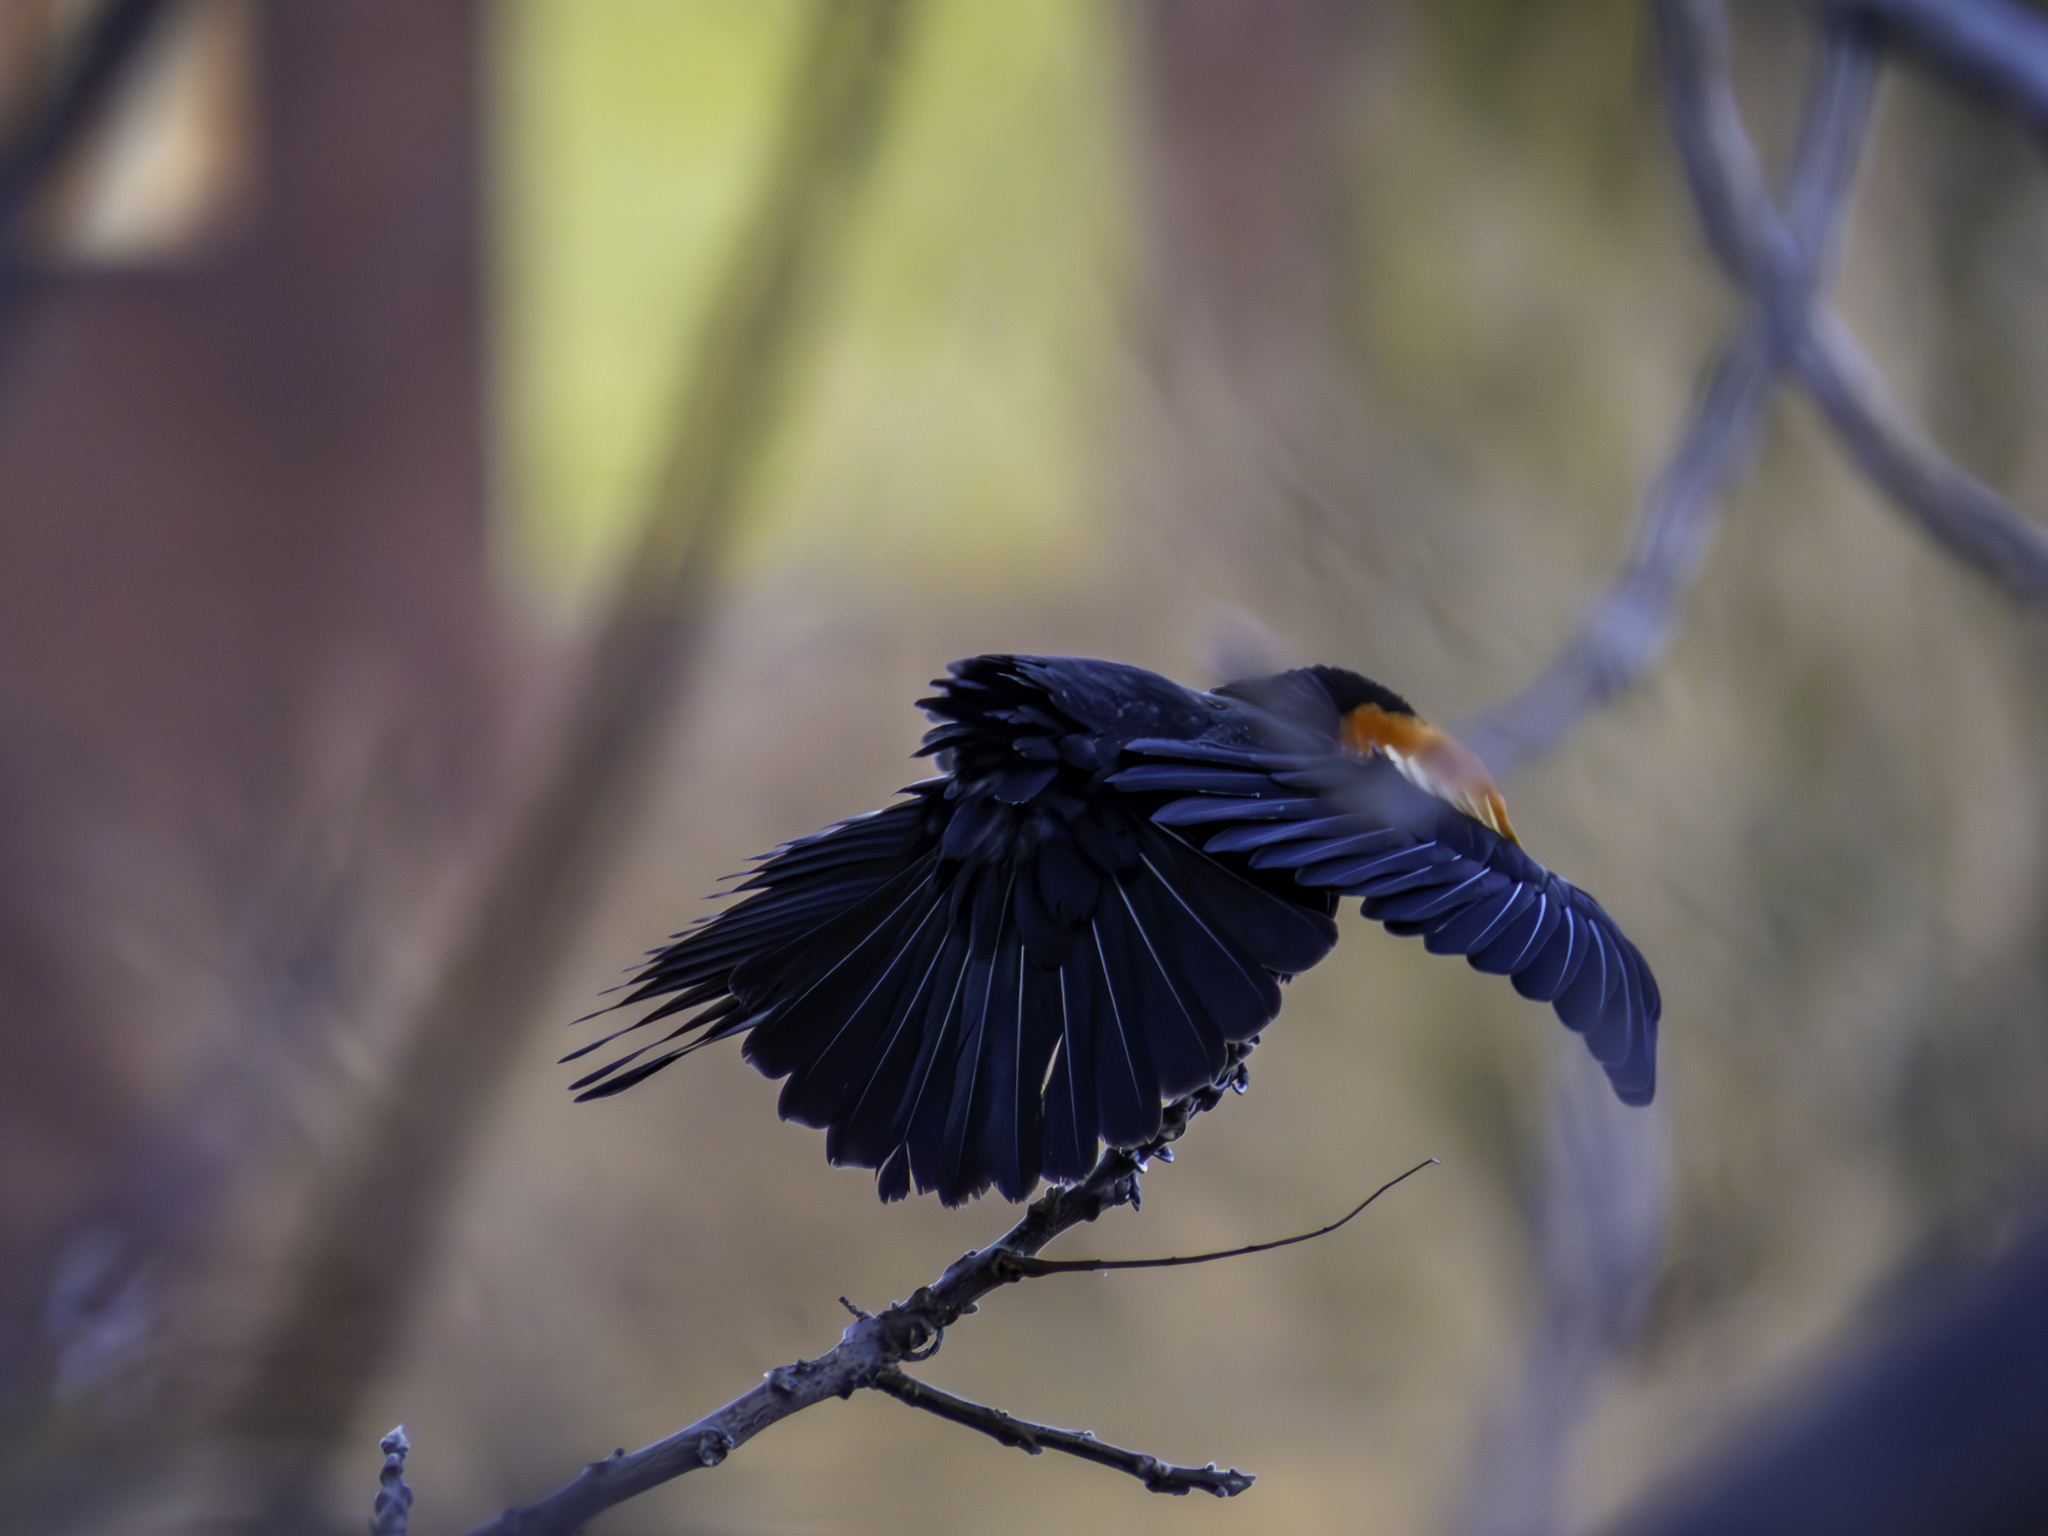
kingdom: Animalia
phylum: Chordata
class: Aves
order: Passeriformes
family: Icteridae
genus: Agelaius
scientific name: Agelaius phoeniceus
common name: Red-winged blackbird
